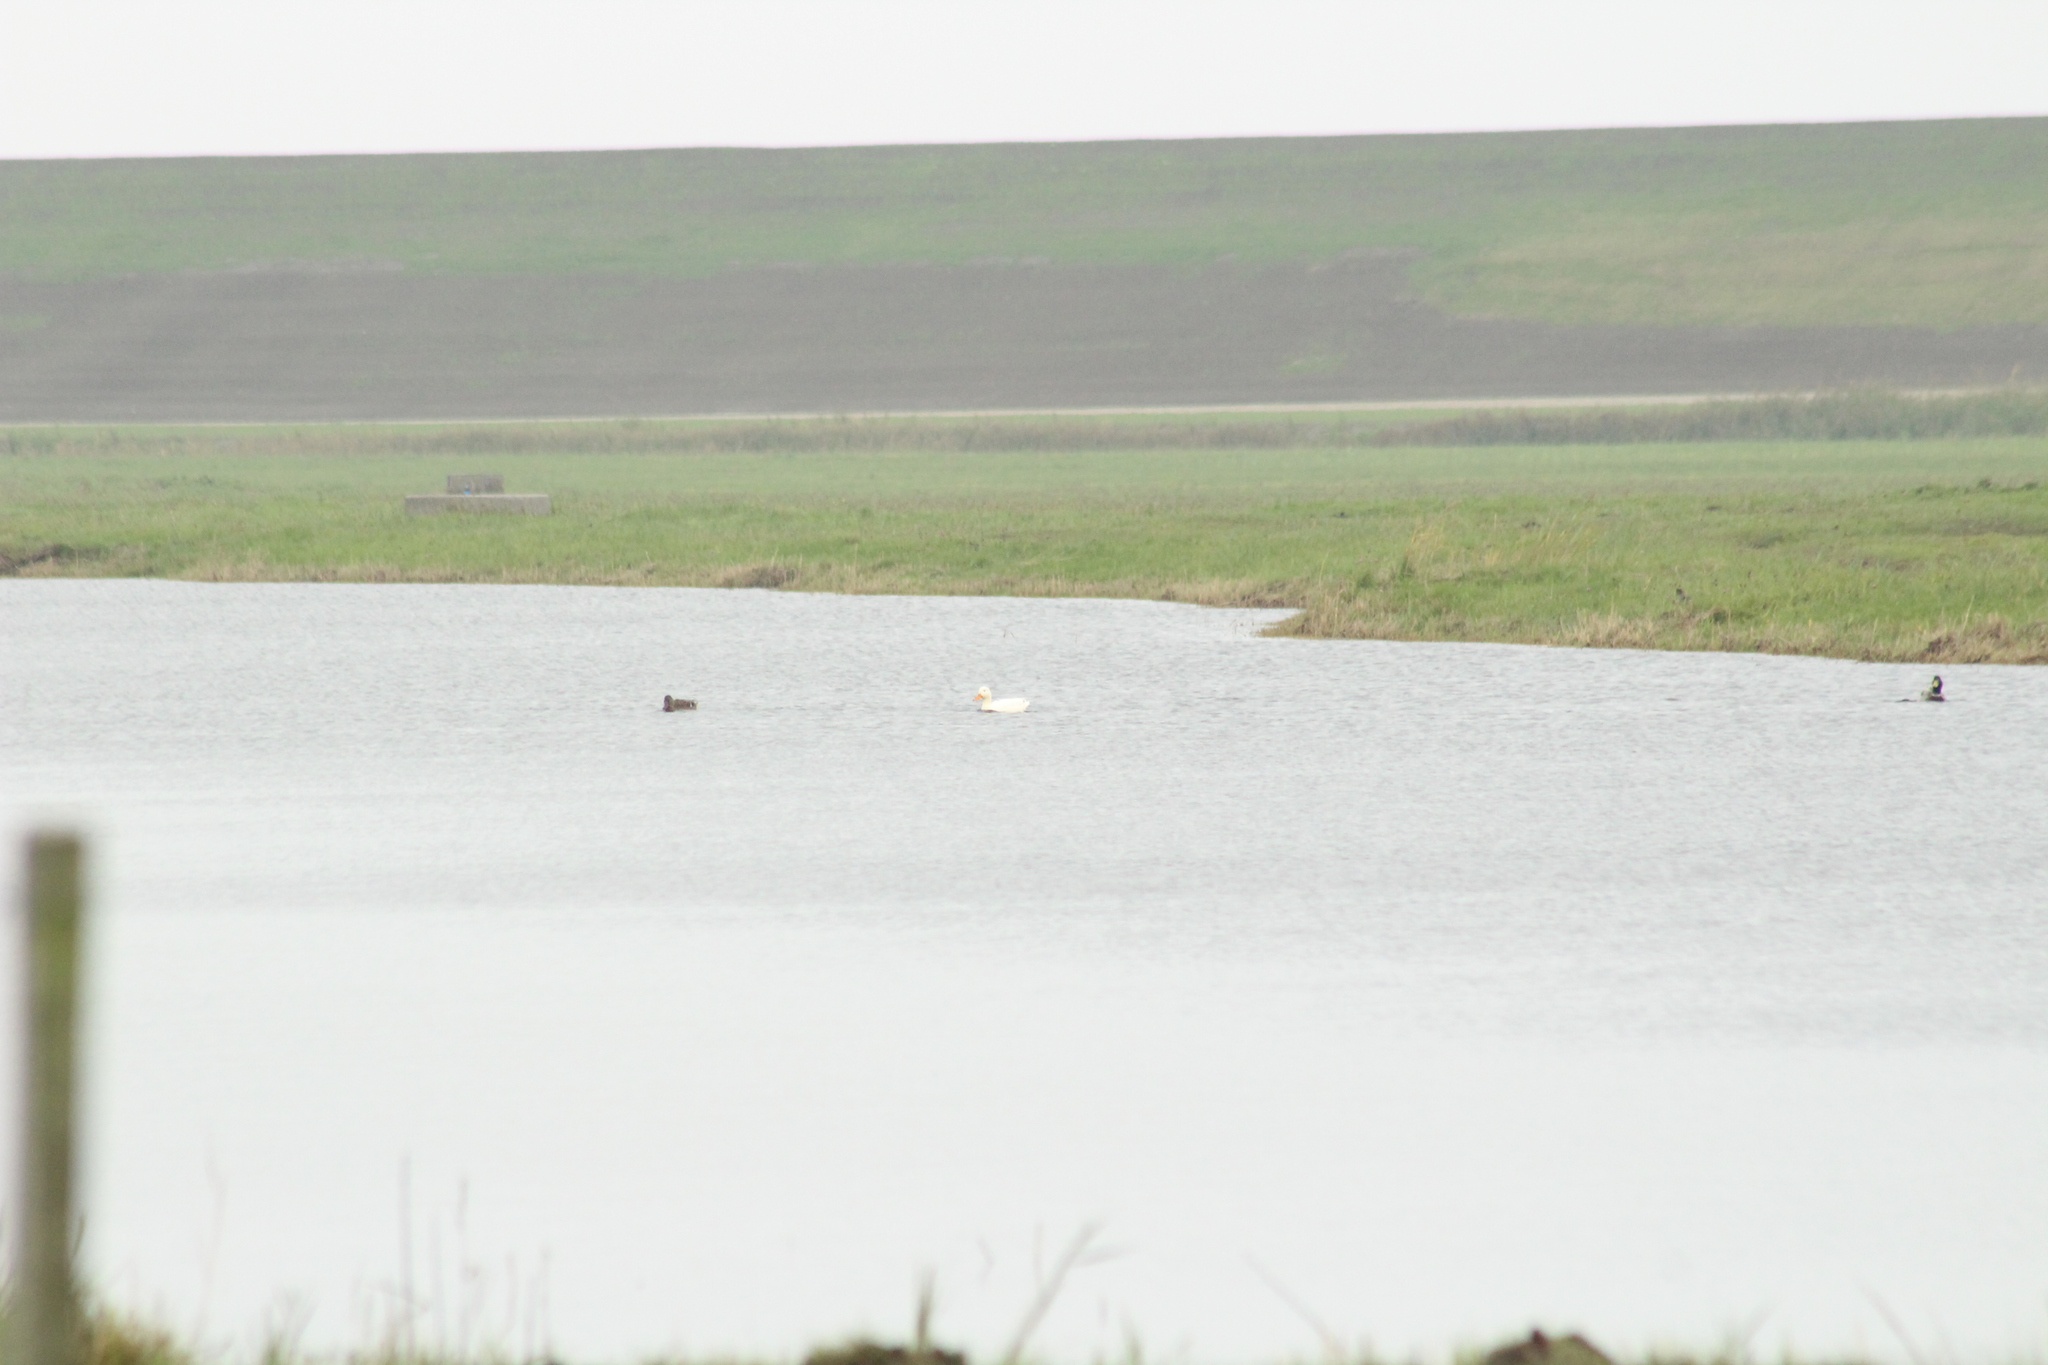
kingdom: Animalia
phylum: Chordata
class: Aves
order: Anseriformes
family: Anatidae
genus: Anas
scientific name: Anas platyrhynchos
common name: Mallard
